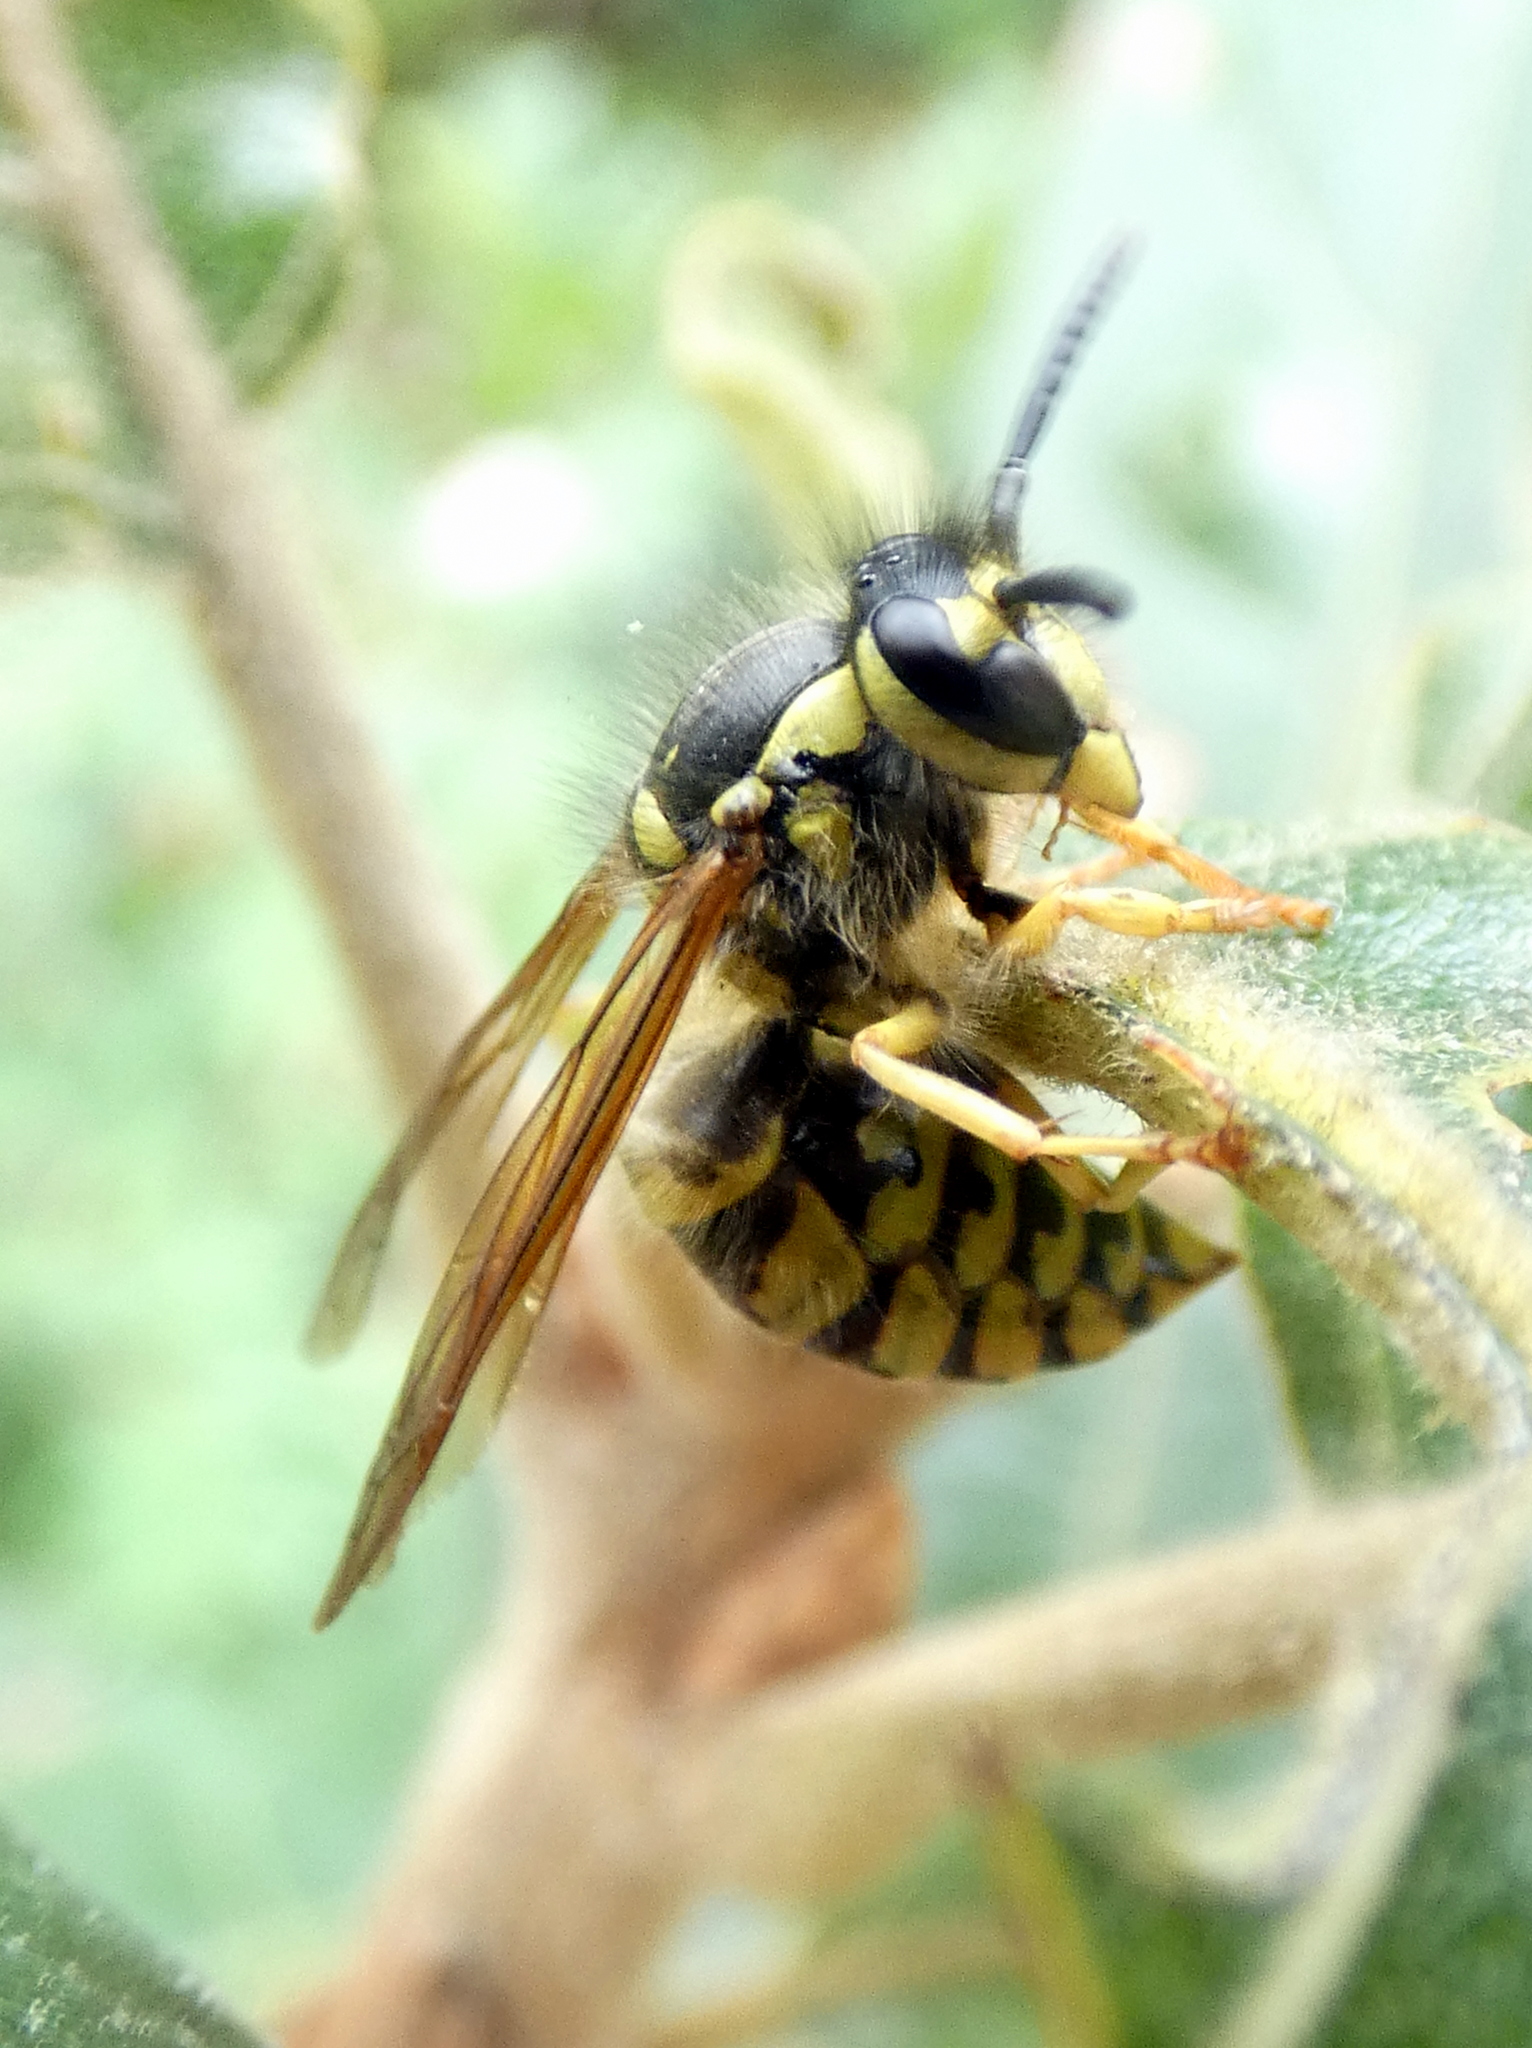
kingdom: Animalia
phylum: Arthropoda
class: Insecta
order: Hymenoptera
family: Vespidae
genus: Vespula
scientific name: Vespula maculifrons
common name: Eastern yellowjacket
